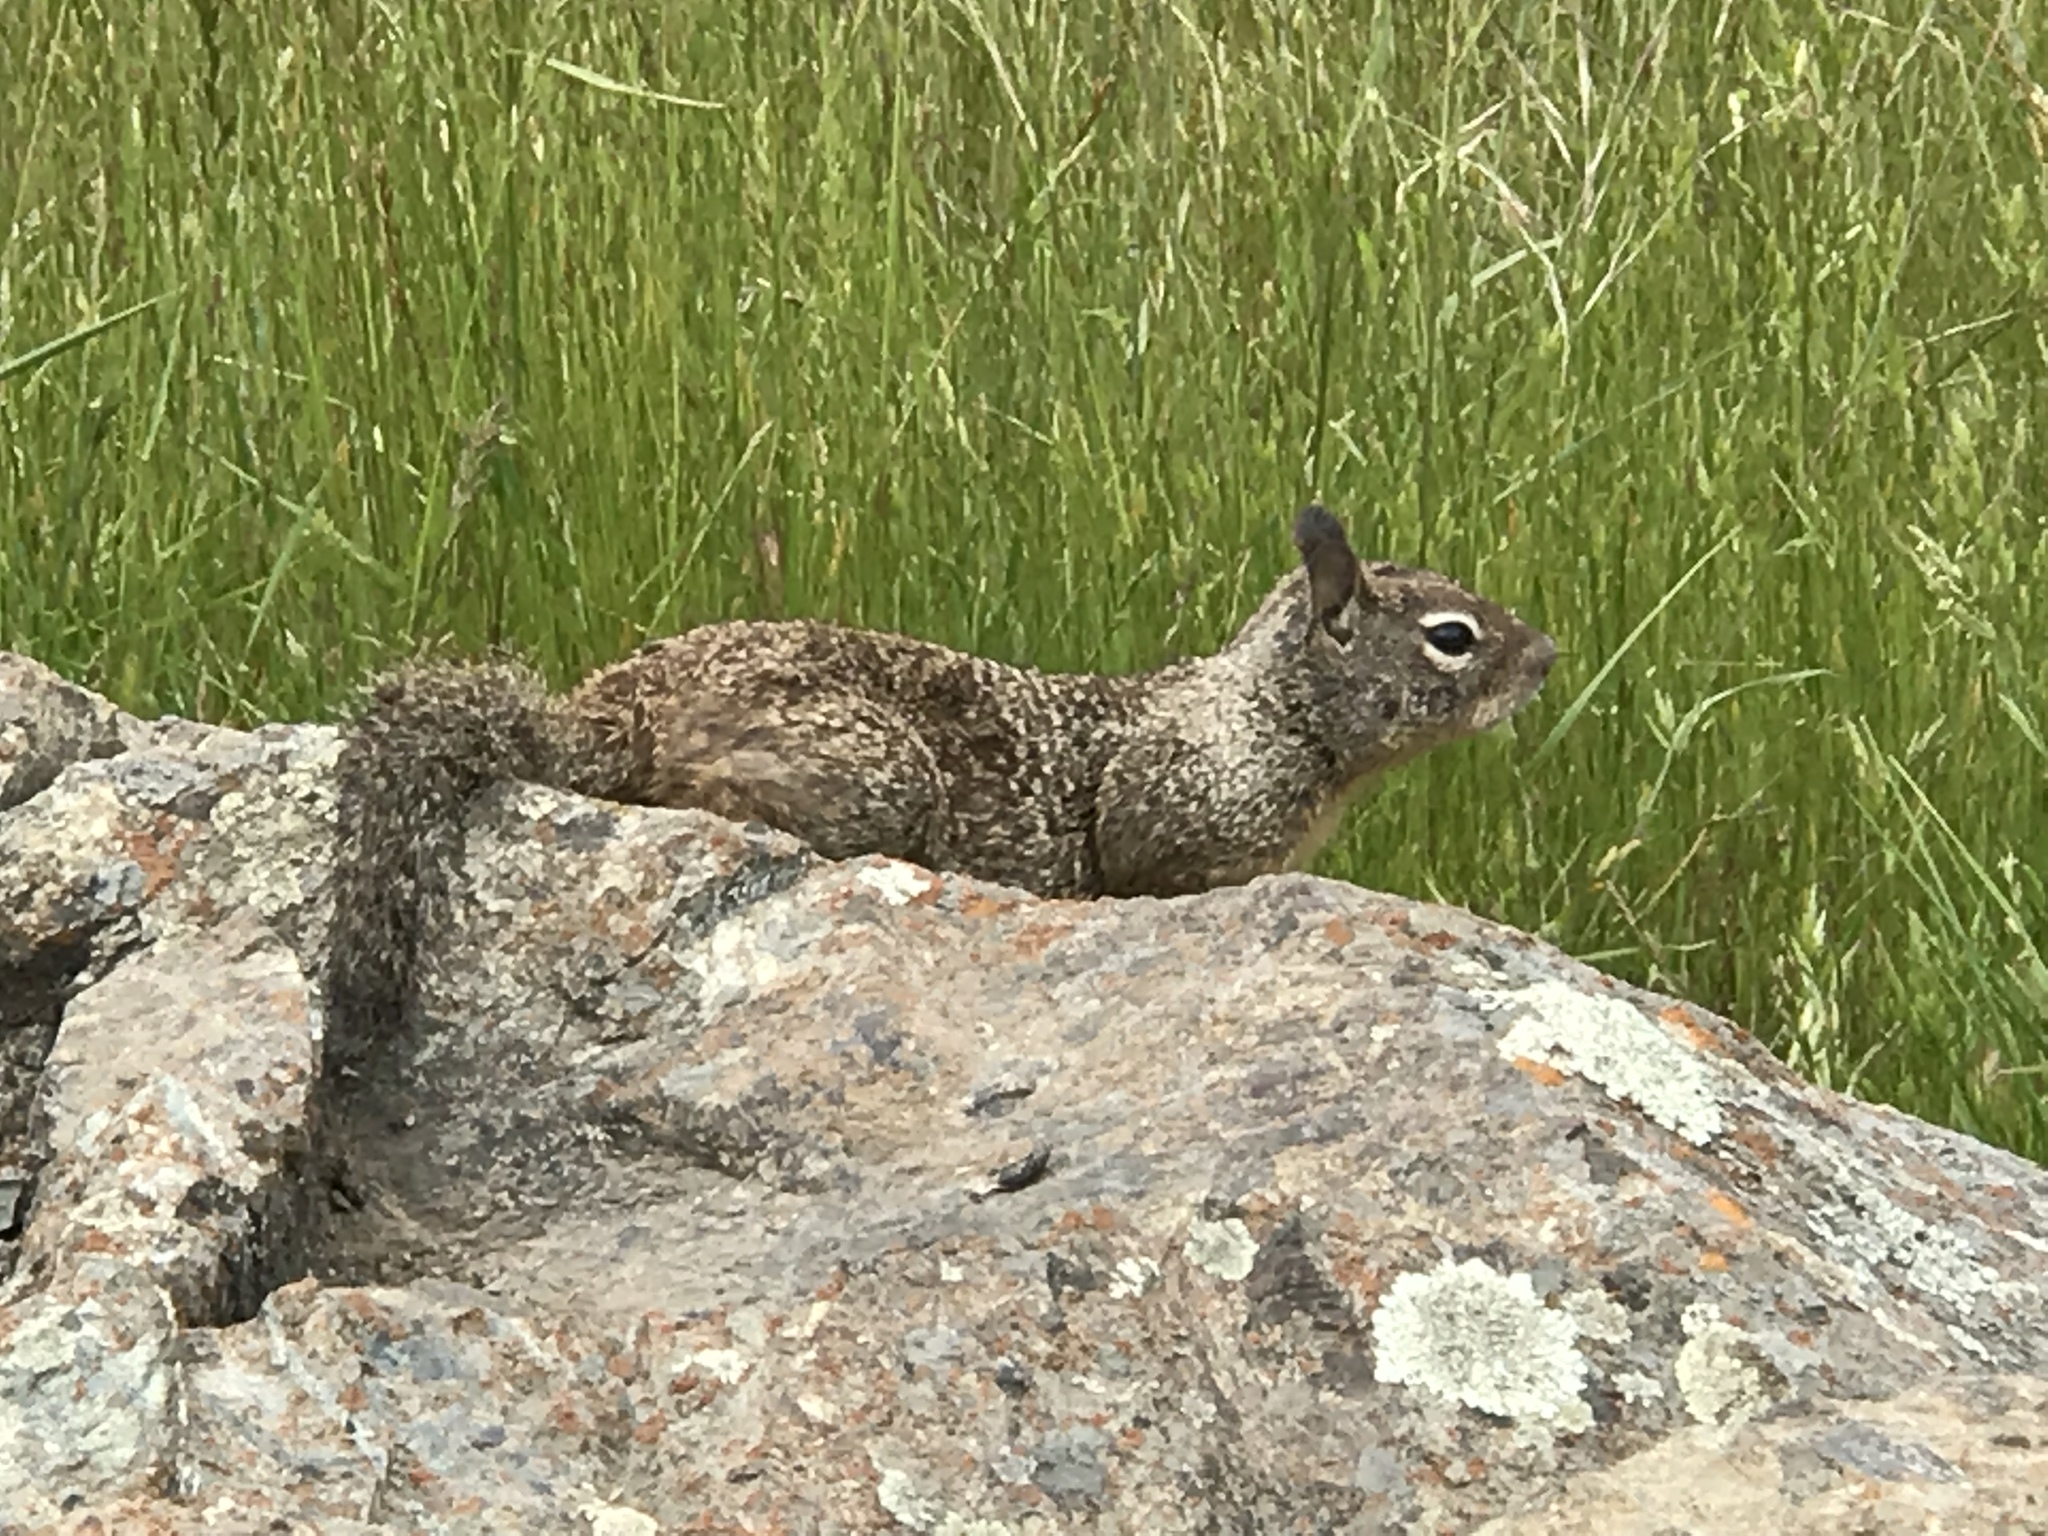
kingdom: Animalia
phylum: Chordata
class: Mammalia
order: Rodentia
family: Sciuridae
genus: Otospermophilus
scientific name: Otospermophilus beecheyi
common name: California ground squirrel
